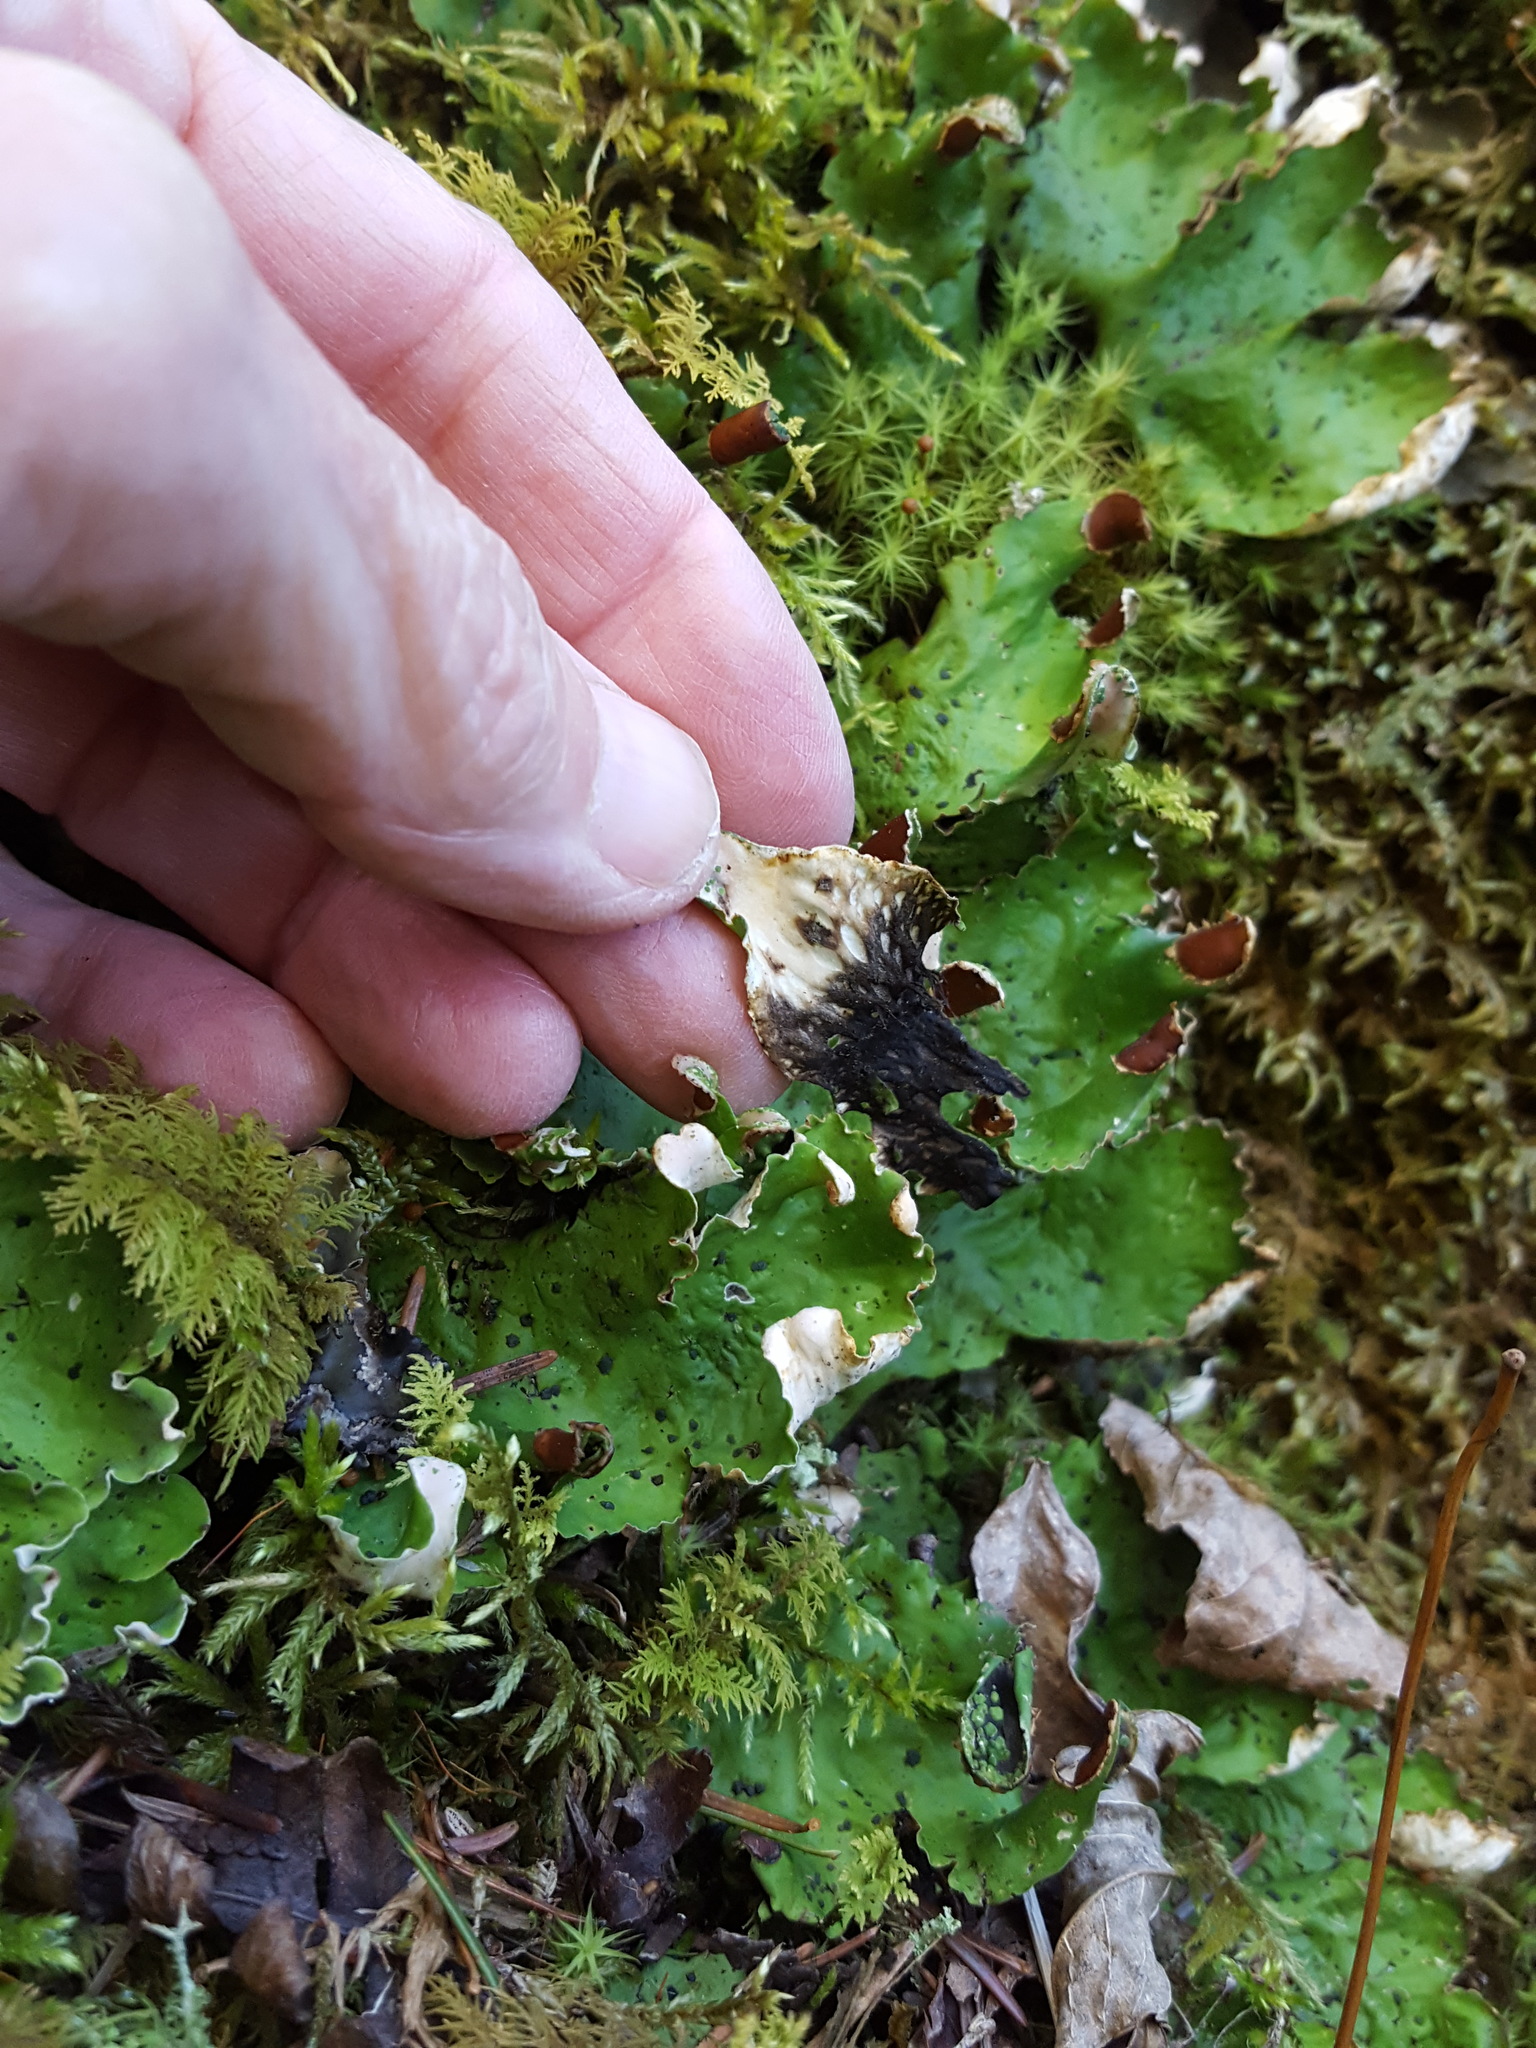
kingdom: Fungi
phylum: Ascomycota
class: Lecanoromycetes
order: Peltigerales
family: Peltigeraceae
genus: Peltigera
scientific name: Peltigera aphthosa
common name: Common freckle pelt lichen
